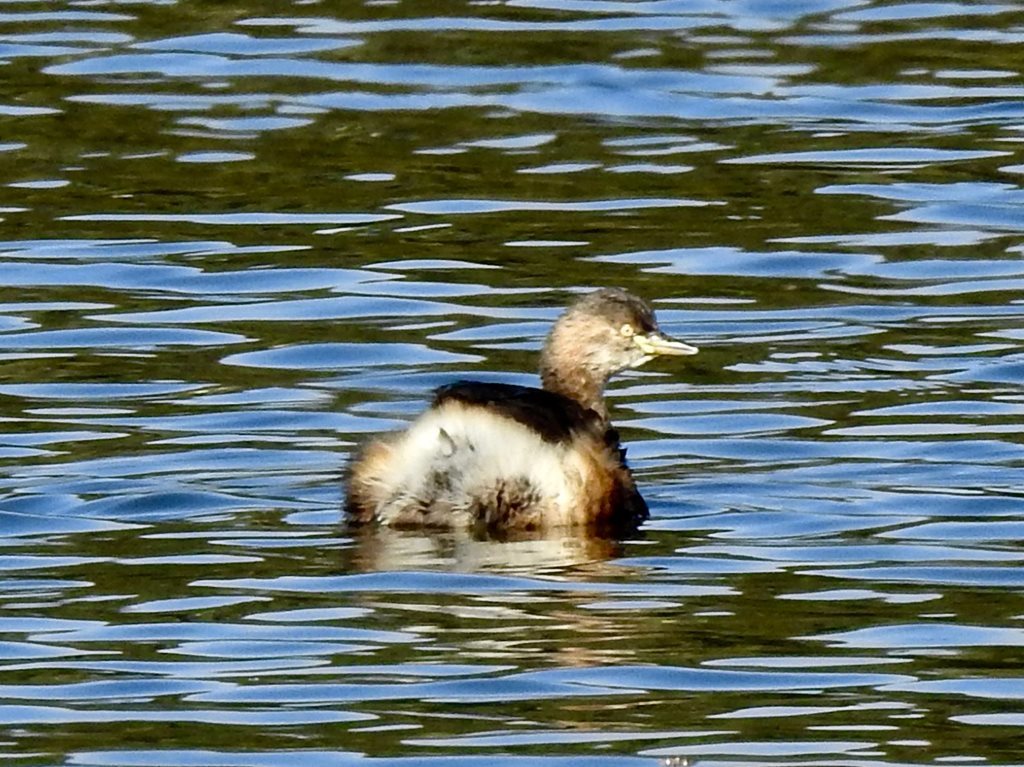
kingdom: Animalia
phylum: Chordata
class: Aves
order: Podicipediformes
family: Podicipedidae
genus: Tachybaptus
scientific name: Tachybaptus novaehollandiae
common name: Australasian grebe
